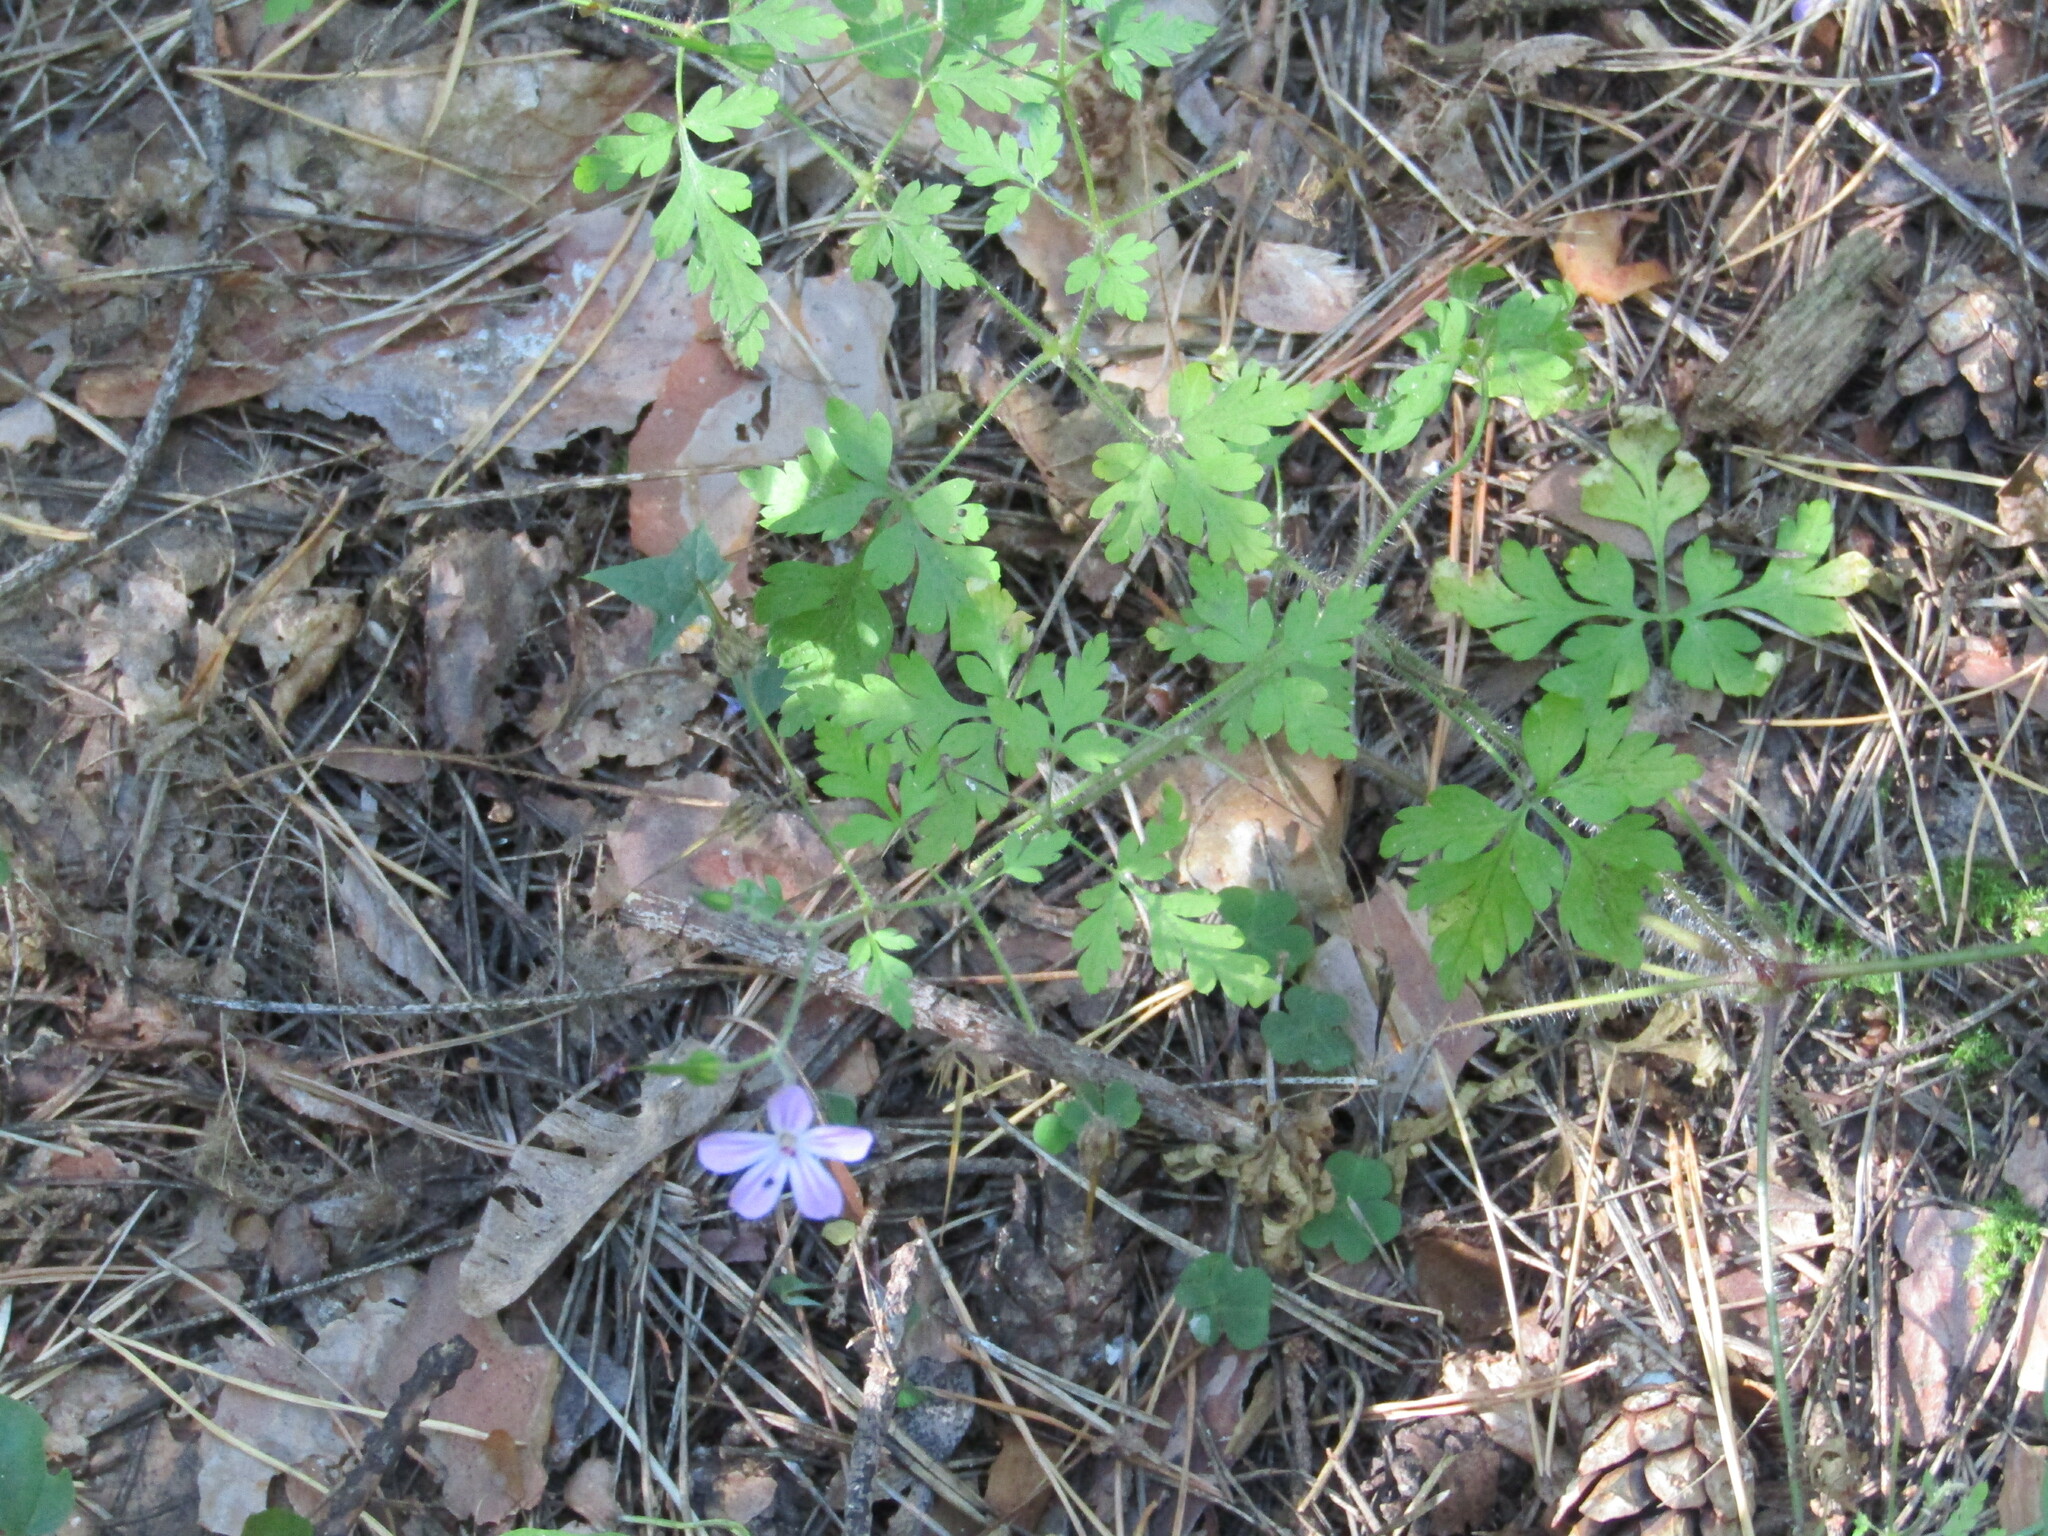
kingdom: Plantae
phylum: Tracheophyta
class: Magnoliopsida
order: Geraniales
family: Geraniaceae
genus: Geranium
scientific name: Geranium robertianum
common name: Herb-robert
